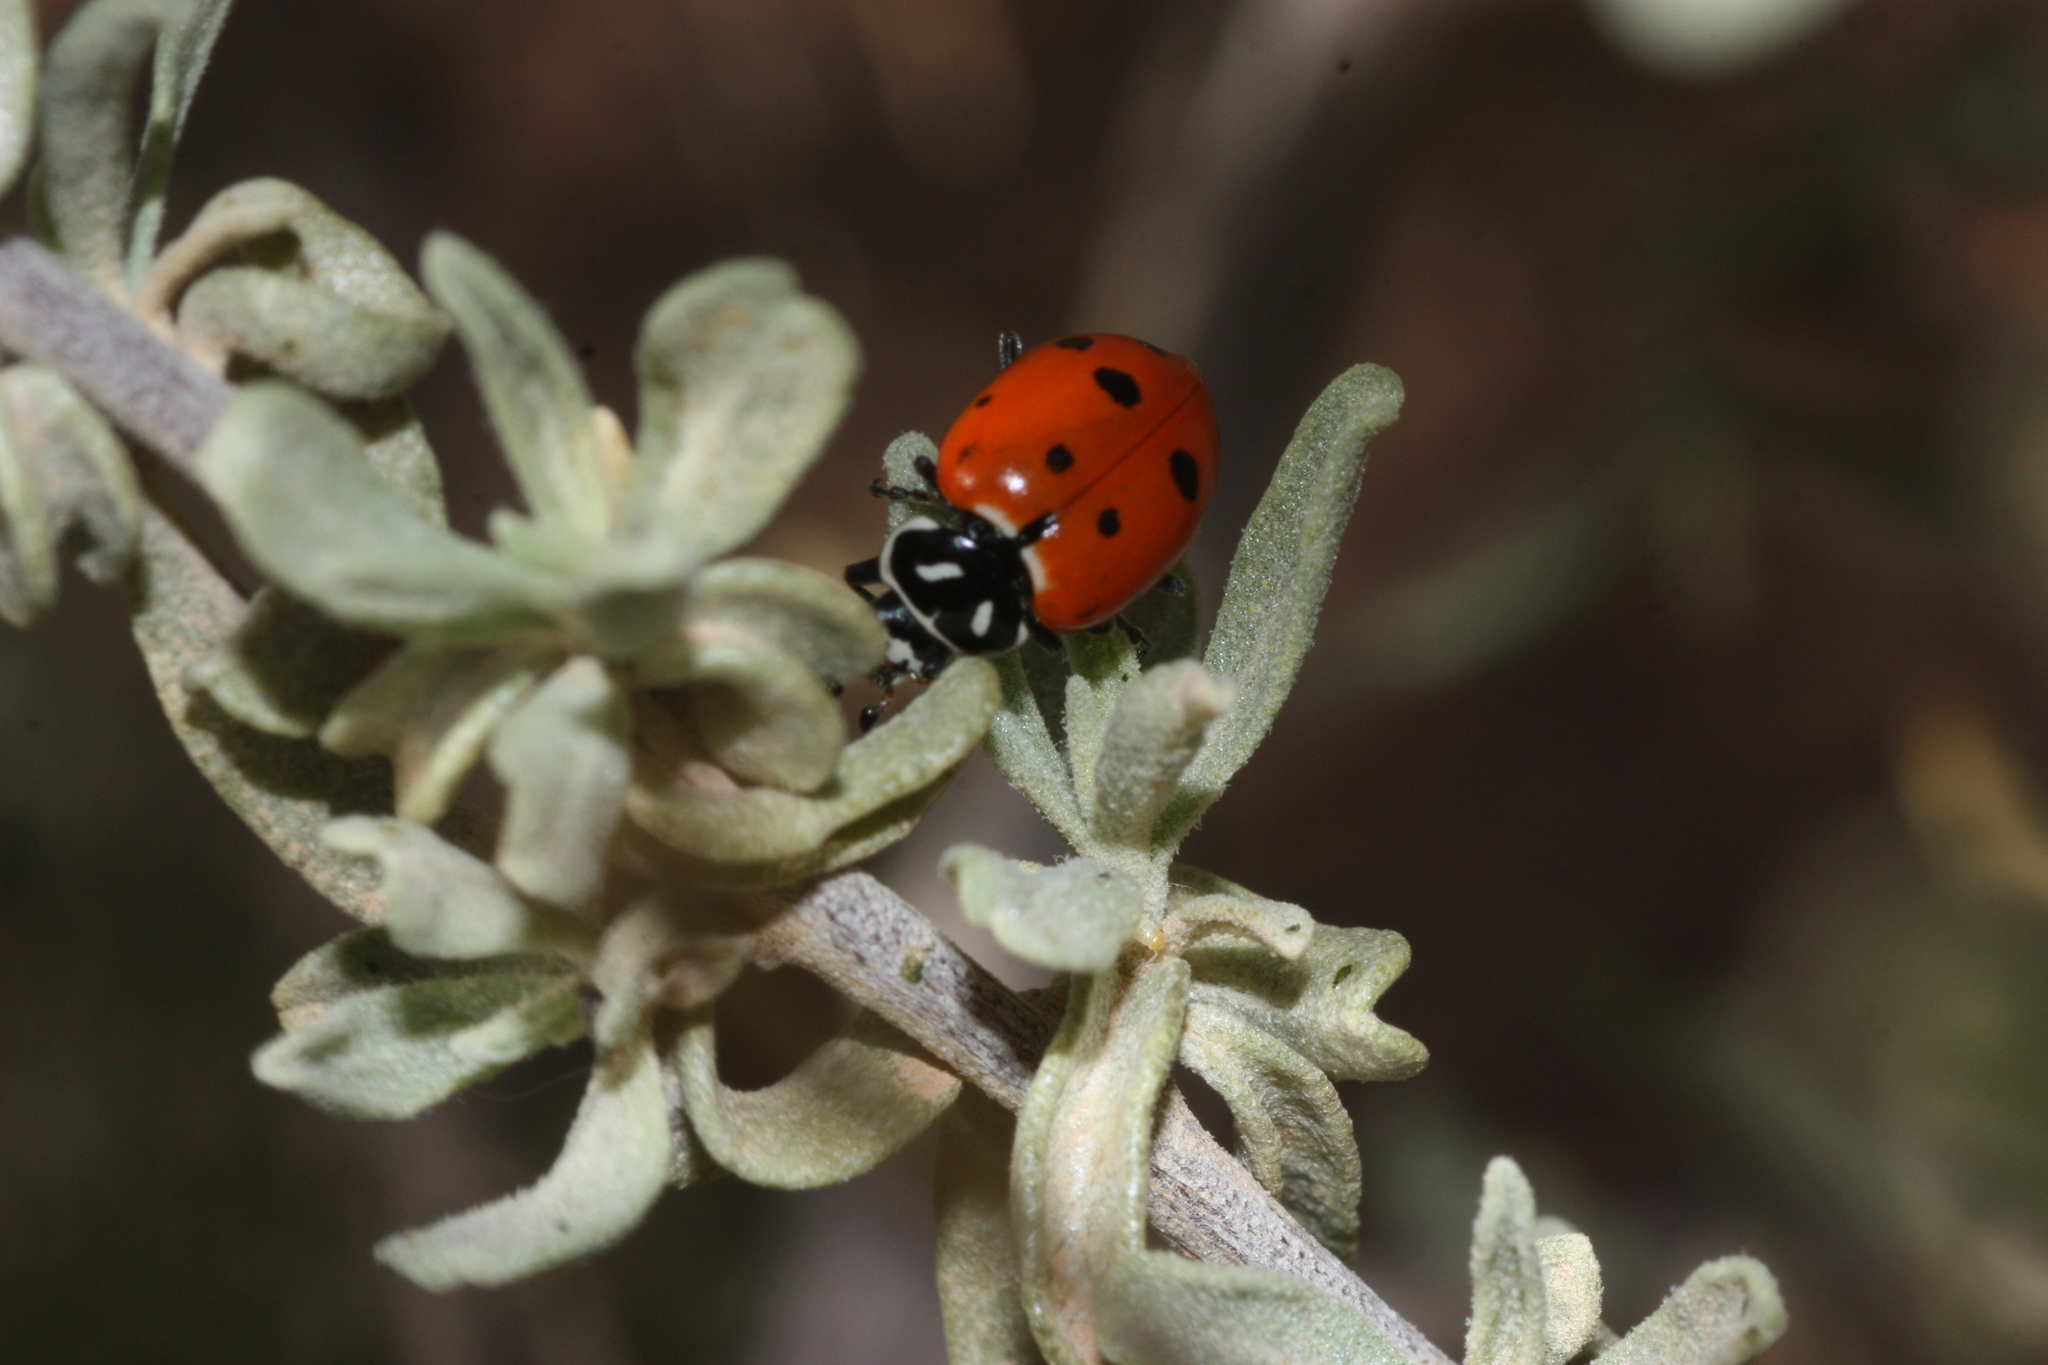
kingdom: Animalia
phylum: Arthropoda
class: Insecta
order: Coleoptera
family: Coccinellidae
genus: Hippodamia
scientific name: Hippodamia convergens
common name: Convergent lady beetle
